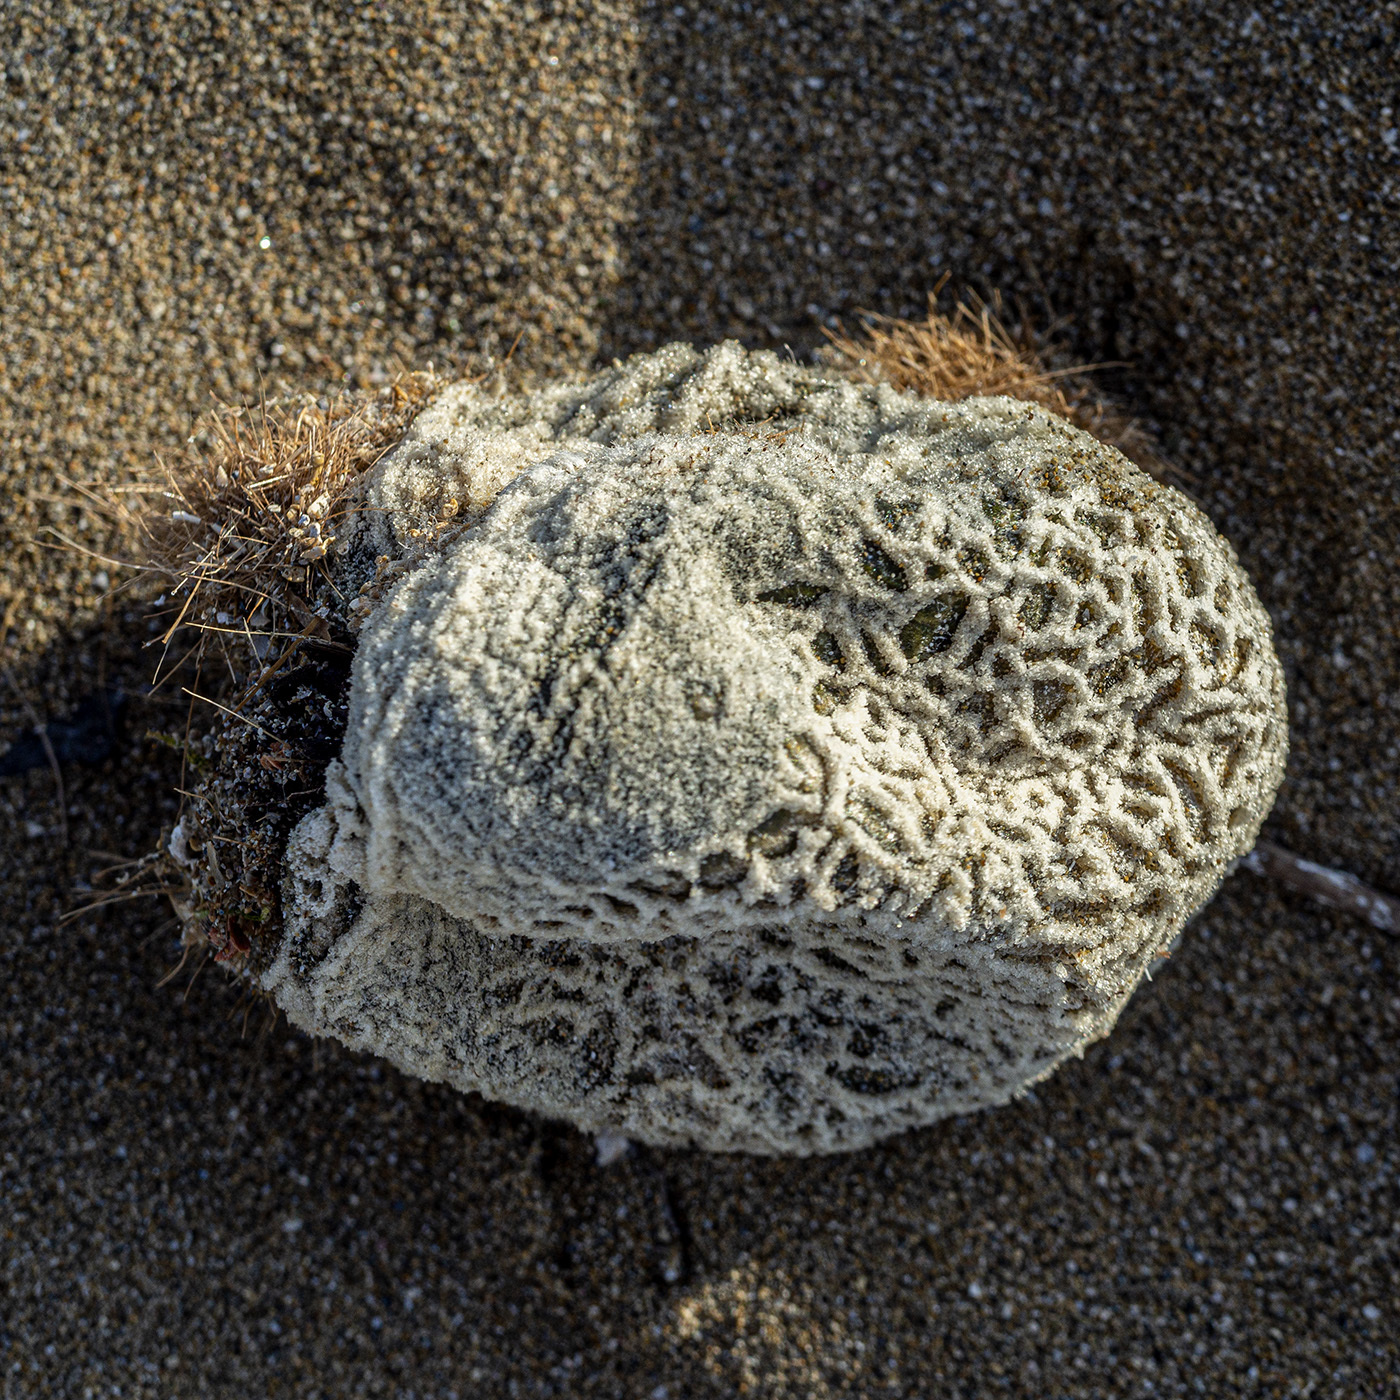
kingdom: Plantae
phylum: Chlorophyta
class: Ulvophyceae
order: Bryopsidales
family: Codiaceae
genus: Codium
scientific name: Codium bursa
